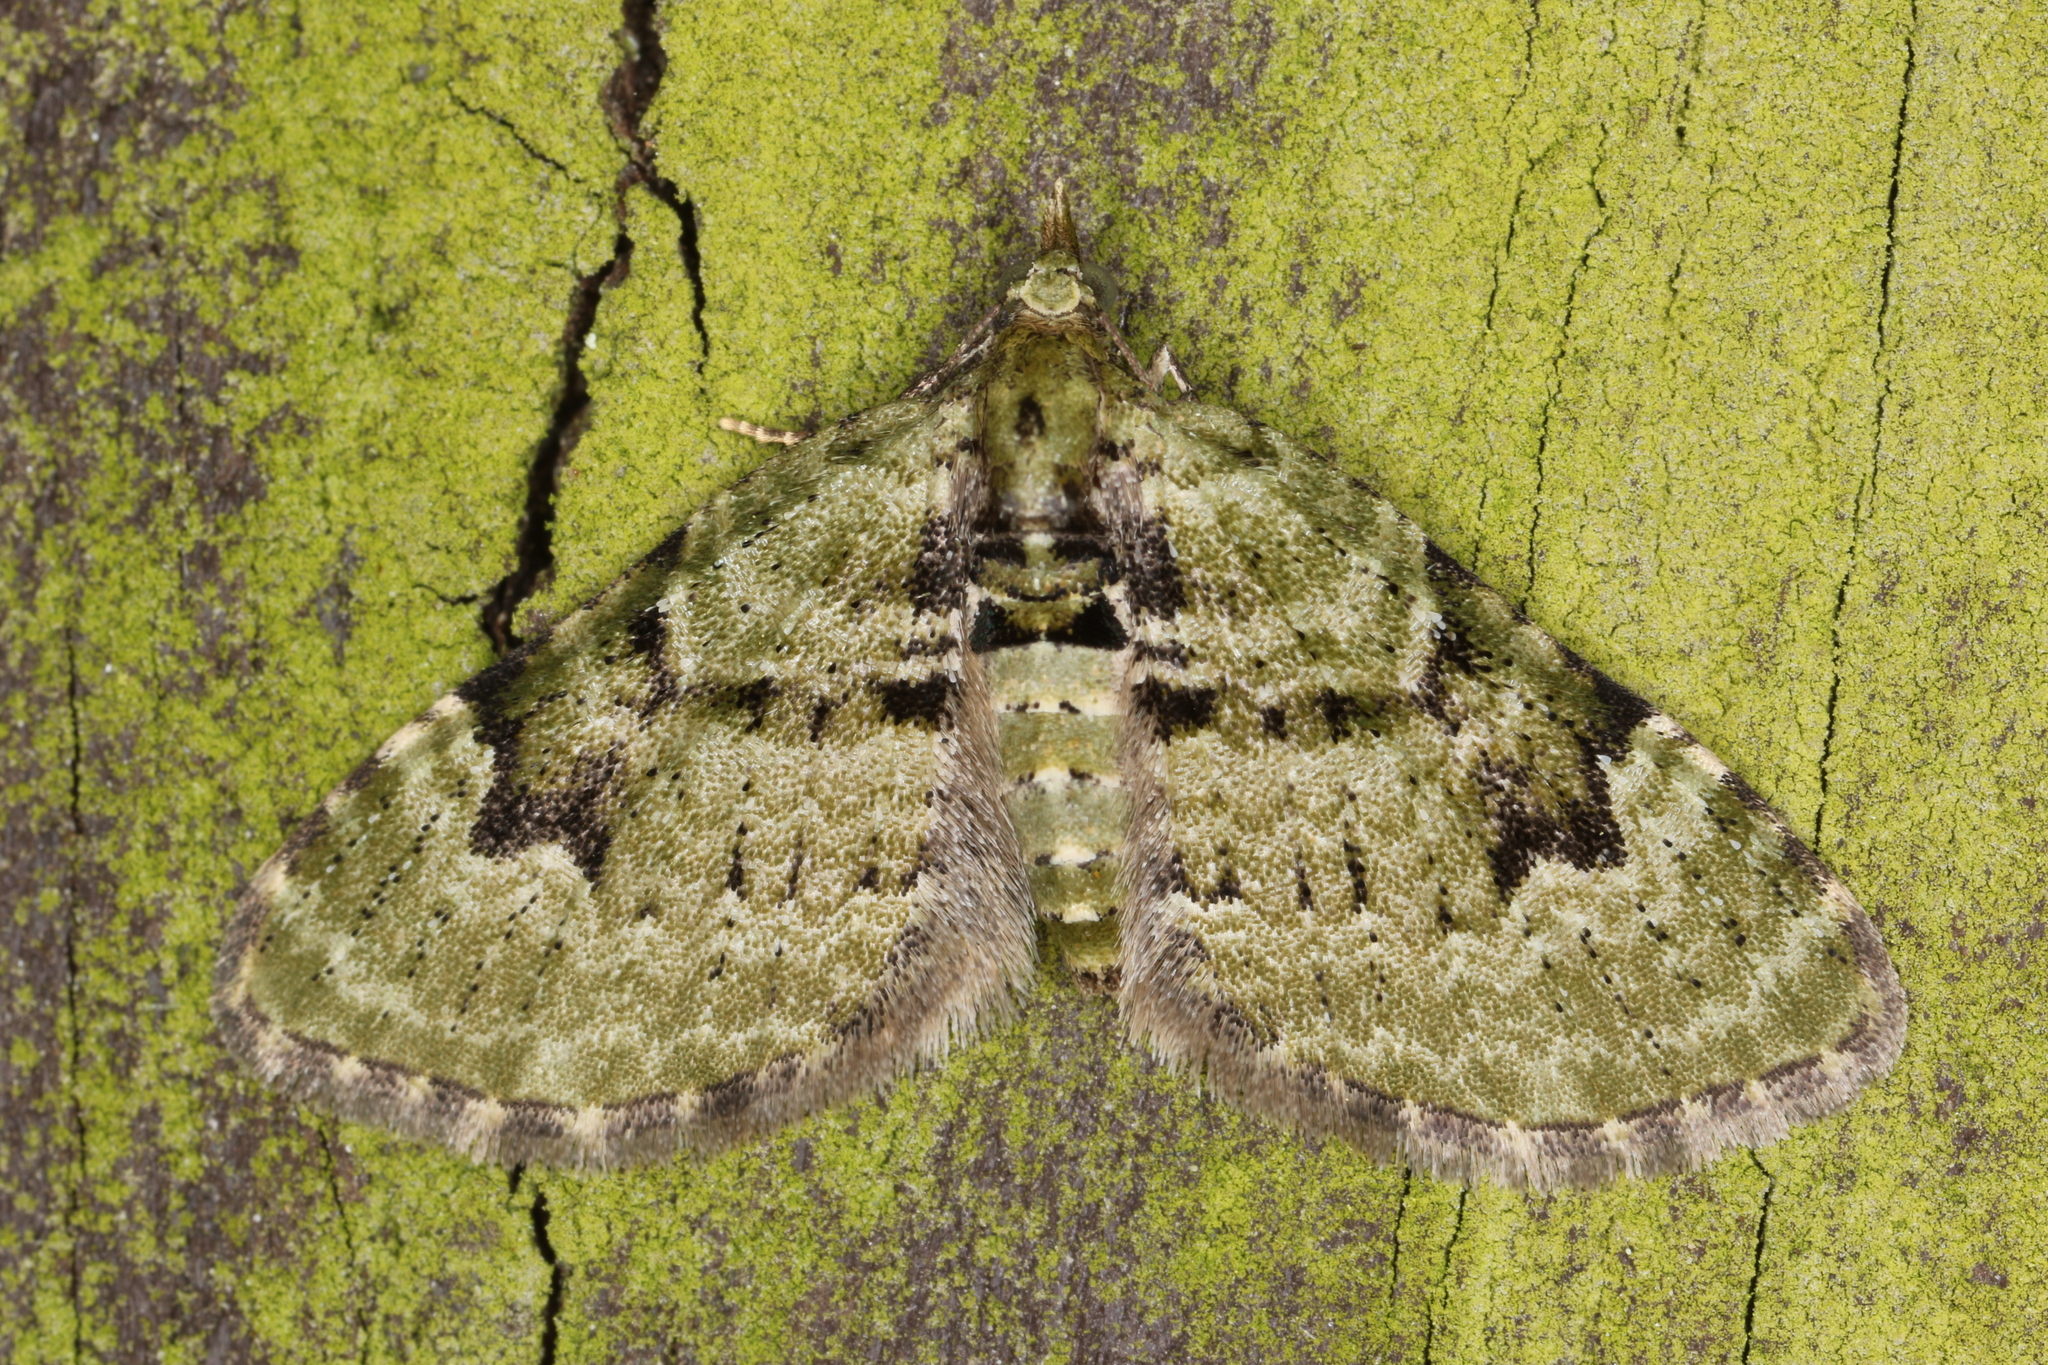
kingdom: Animalia
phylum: Arthropoda
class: Insecta
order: Lepidoptera
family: Geometridae
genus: Chloroclystis
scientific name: Chloroclystis v-ata
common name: V-pug
